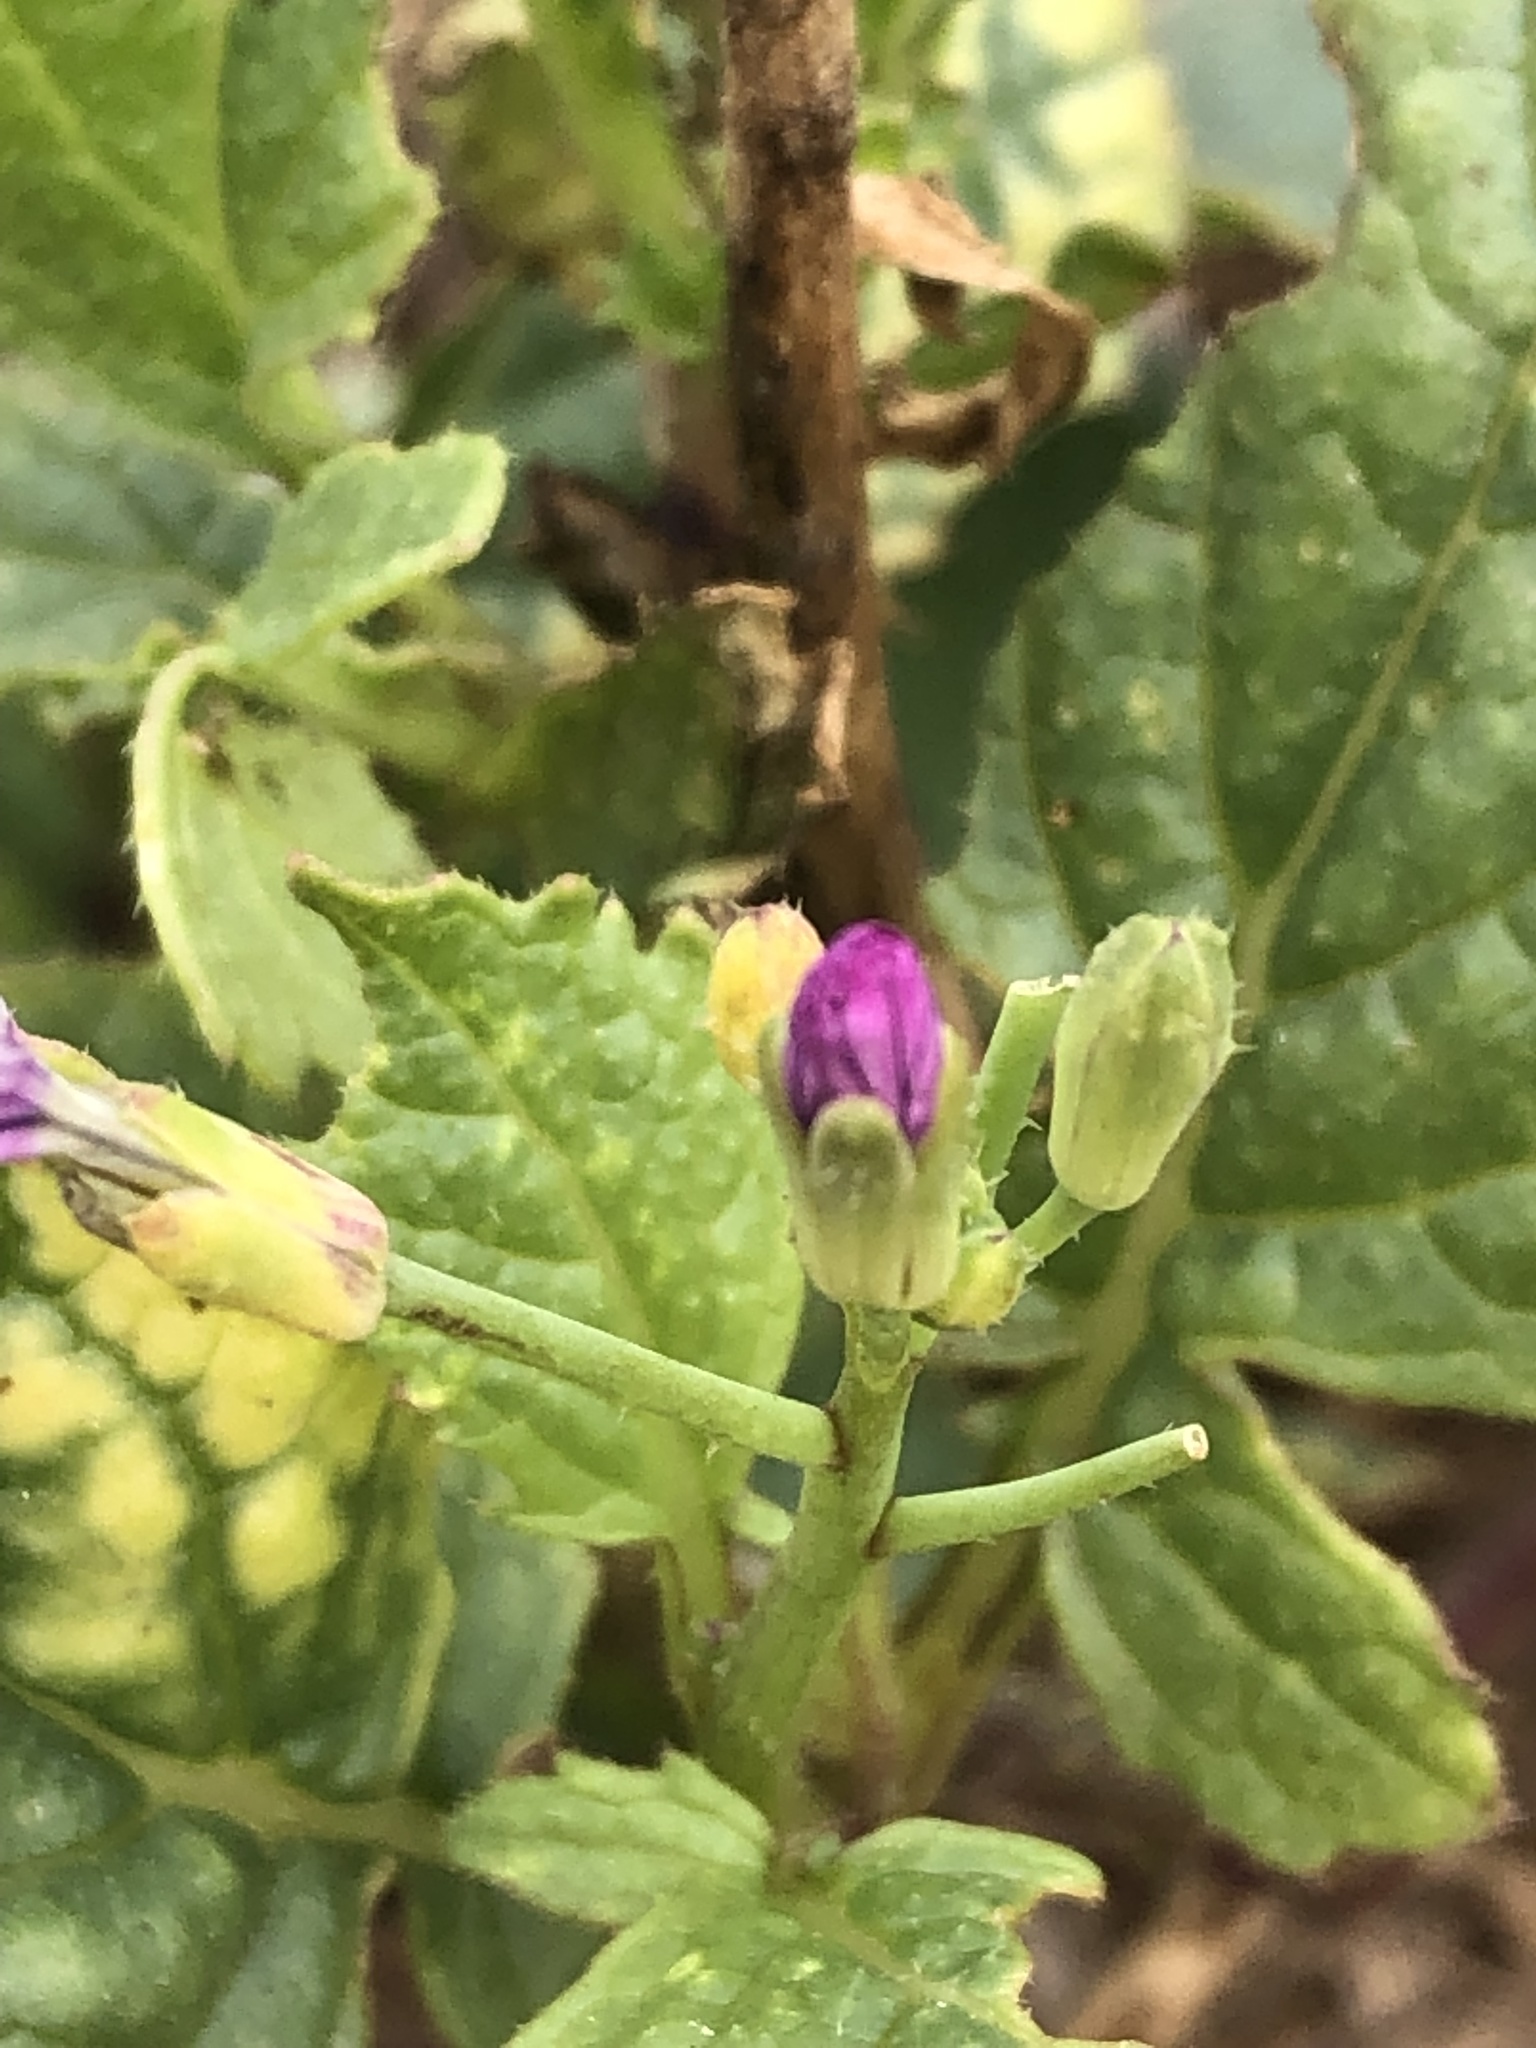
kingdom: Plantae
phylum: Tracheophyta
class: Magnoliopsida
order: Brassicales
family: Brassicaceae
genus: Raphanus
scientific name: Raphanus sativus
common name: Cultivated radish
